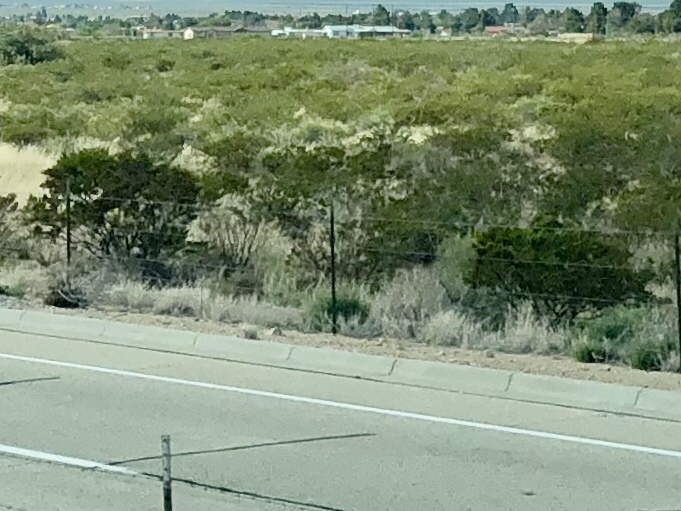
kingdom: Plantae
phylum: Tracheophyta
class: Magnoliopsida
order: Zygophyllales
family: Zygophyllaceae
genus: Larrea
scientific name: Larrea tridentata
